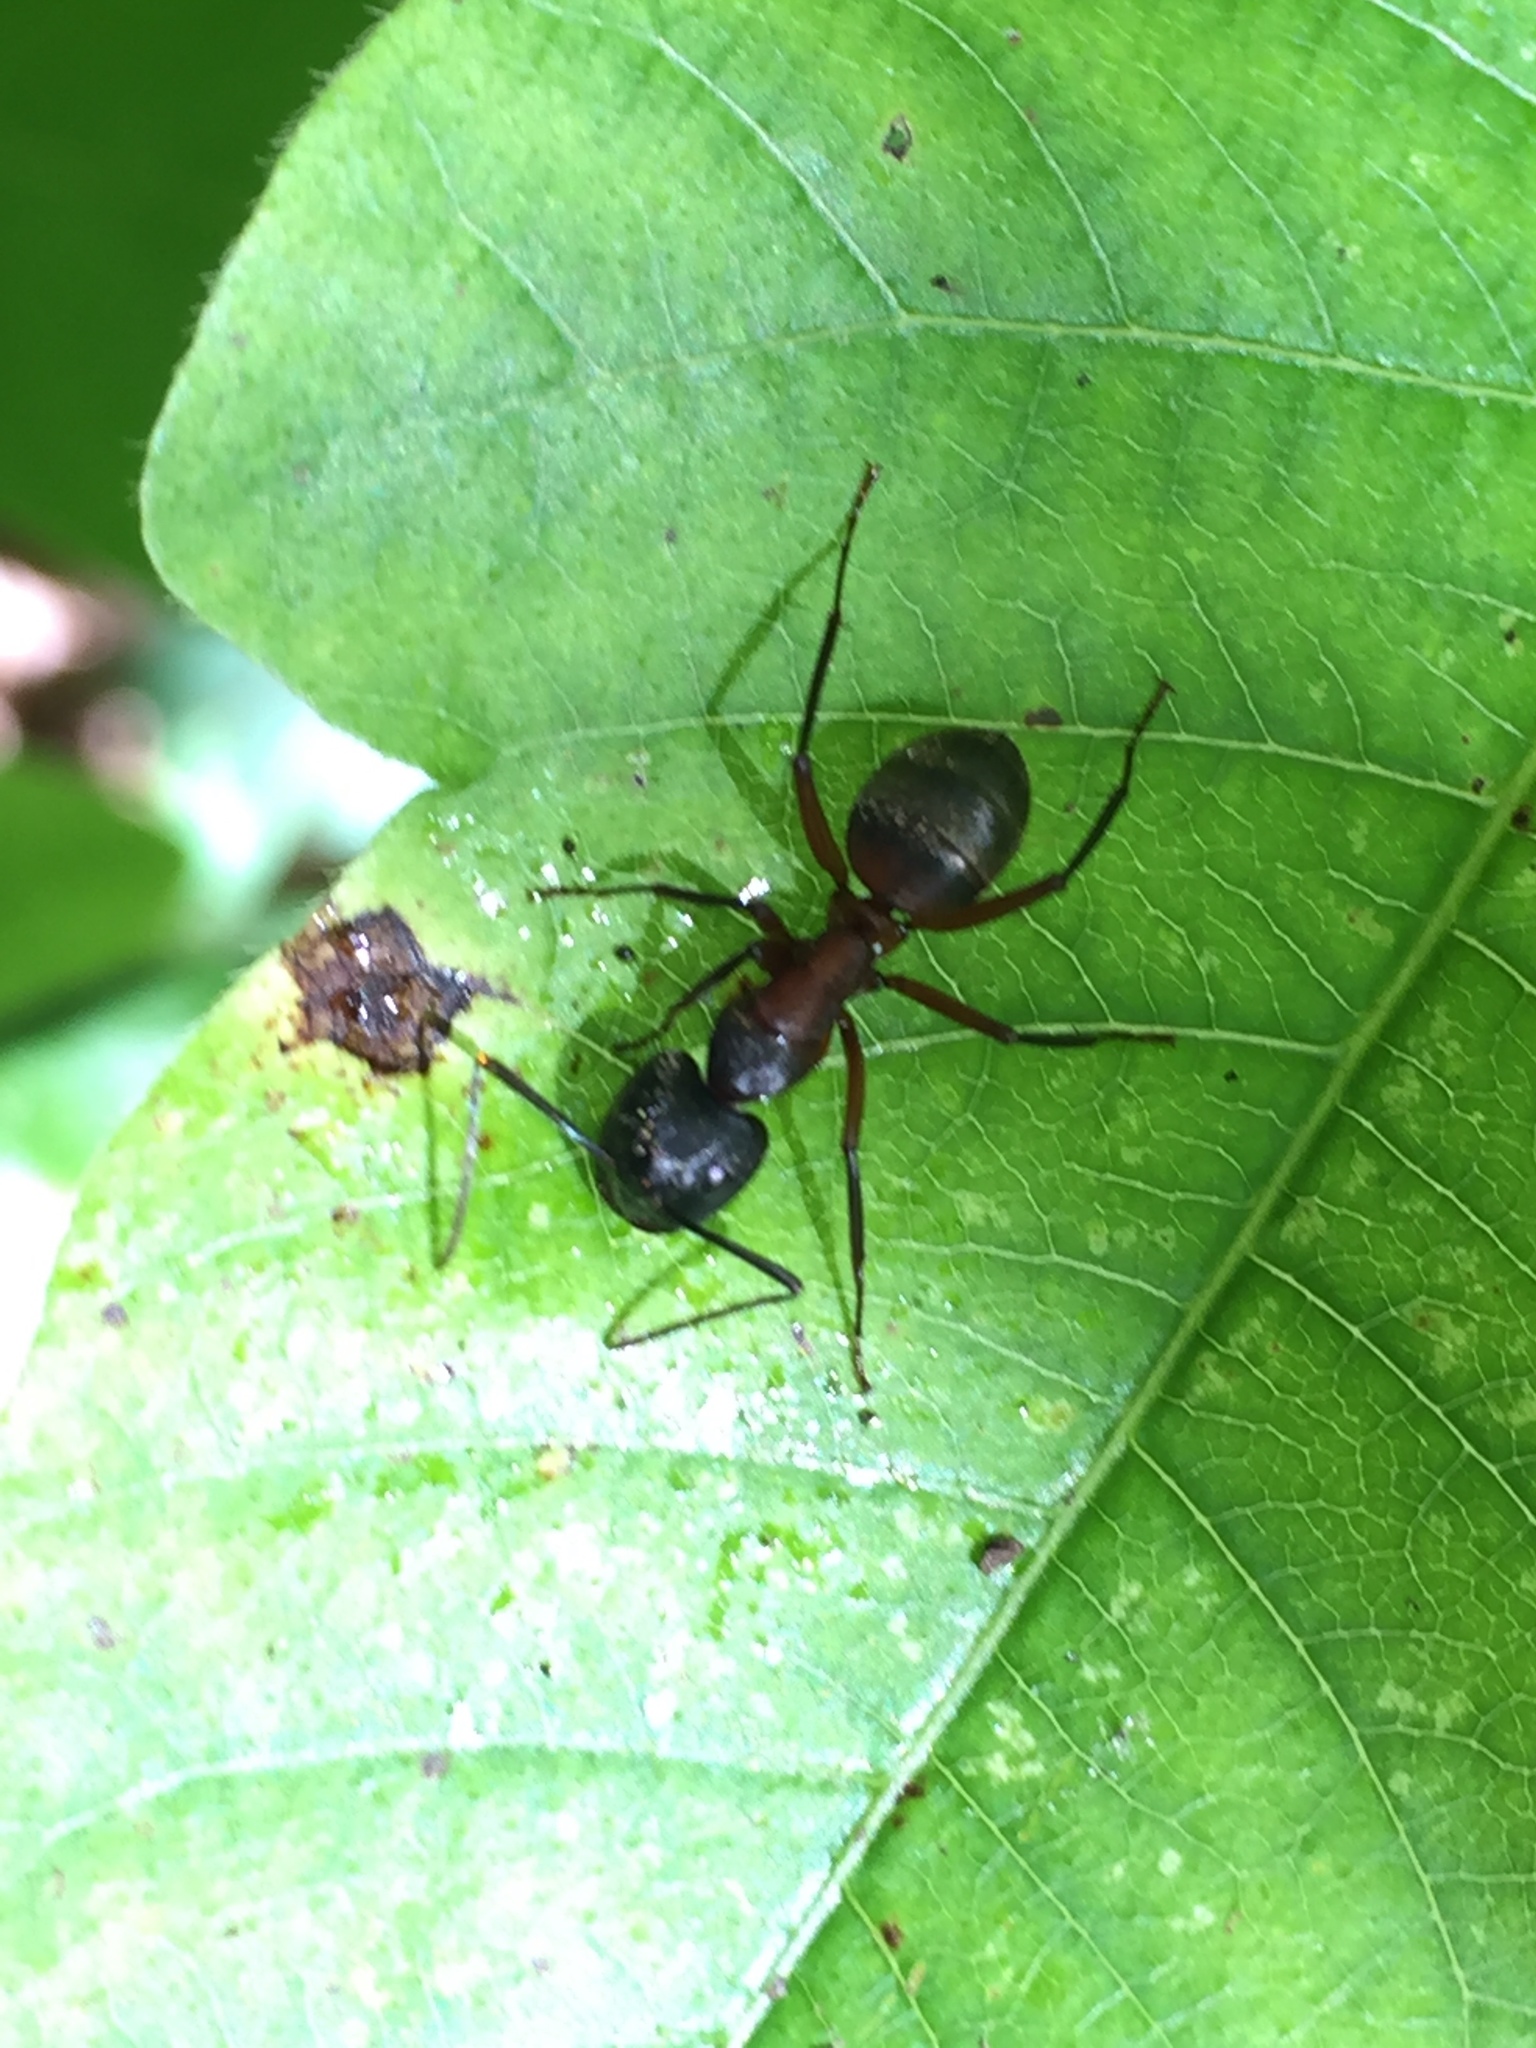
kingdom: Animalia
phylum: Arthropoda
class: Insecta
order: Hymenoptera
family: Formicidae
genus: Camponotus
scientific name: Camponotus chromaiodes
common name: Red carpenter ant
